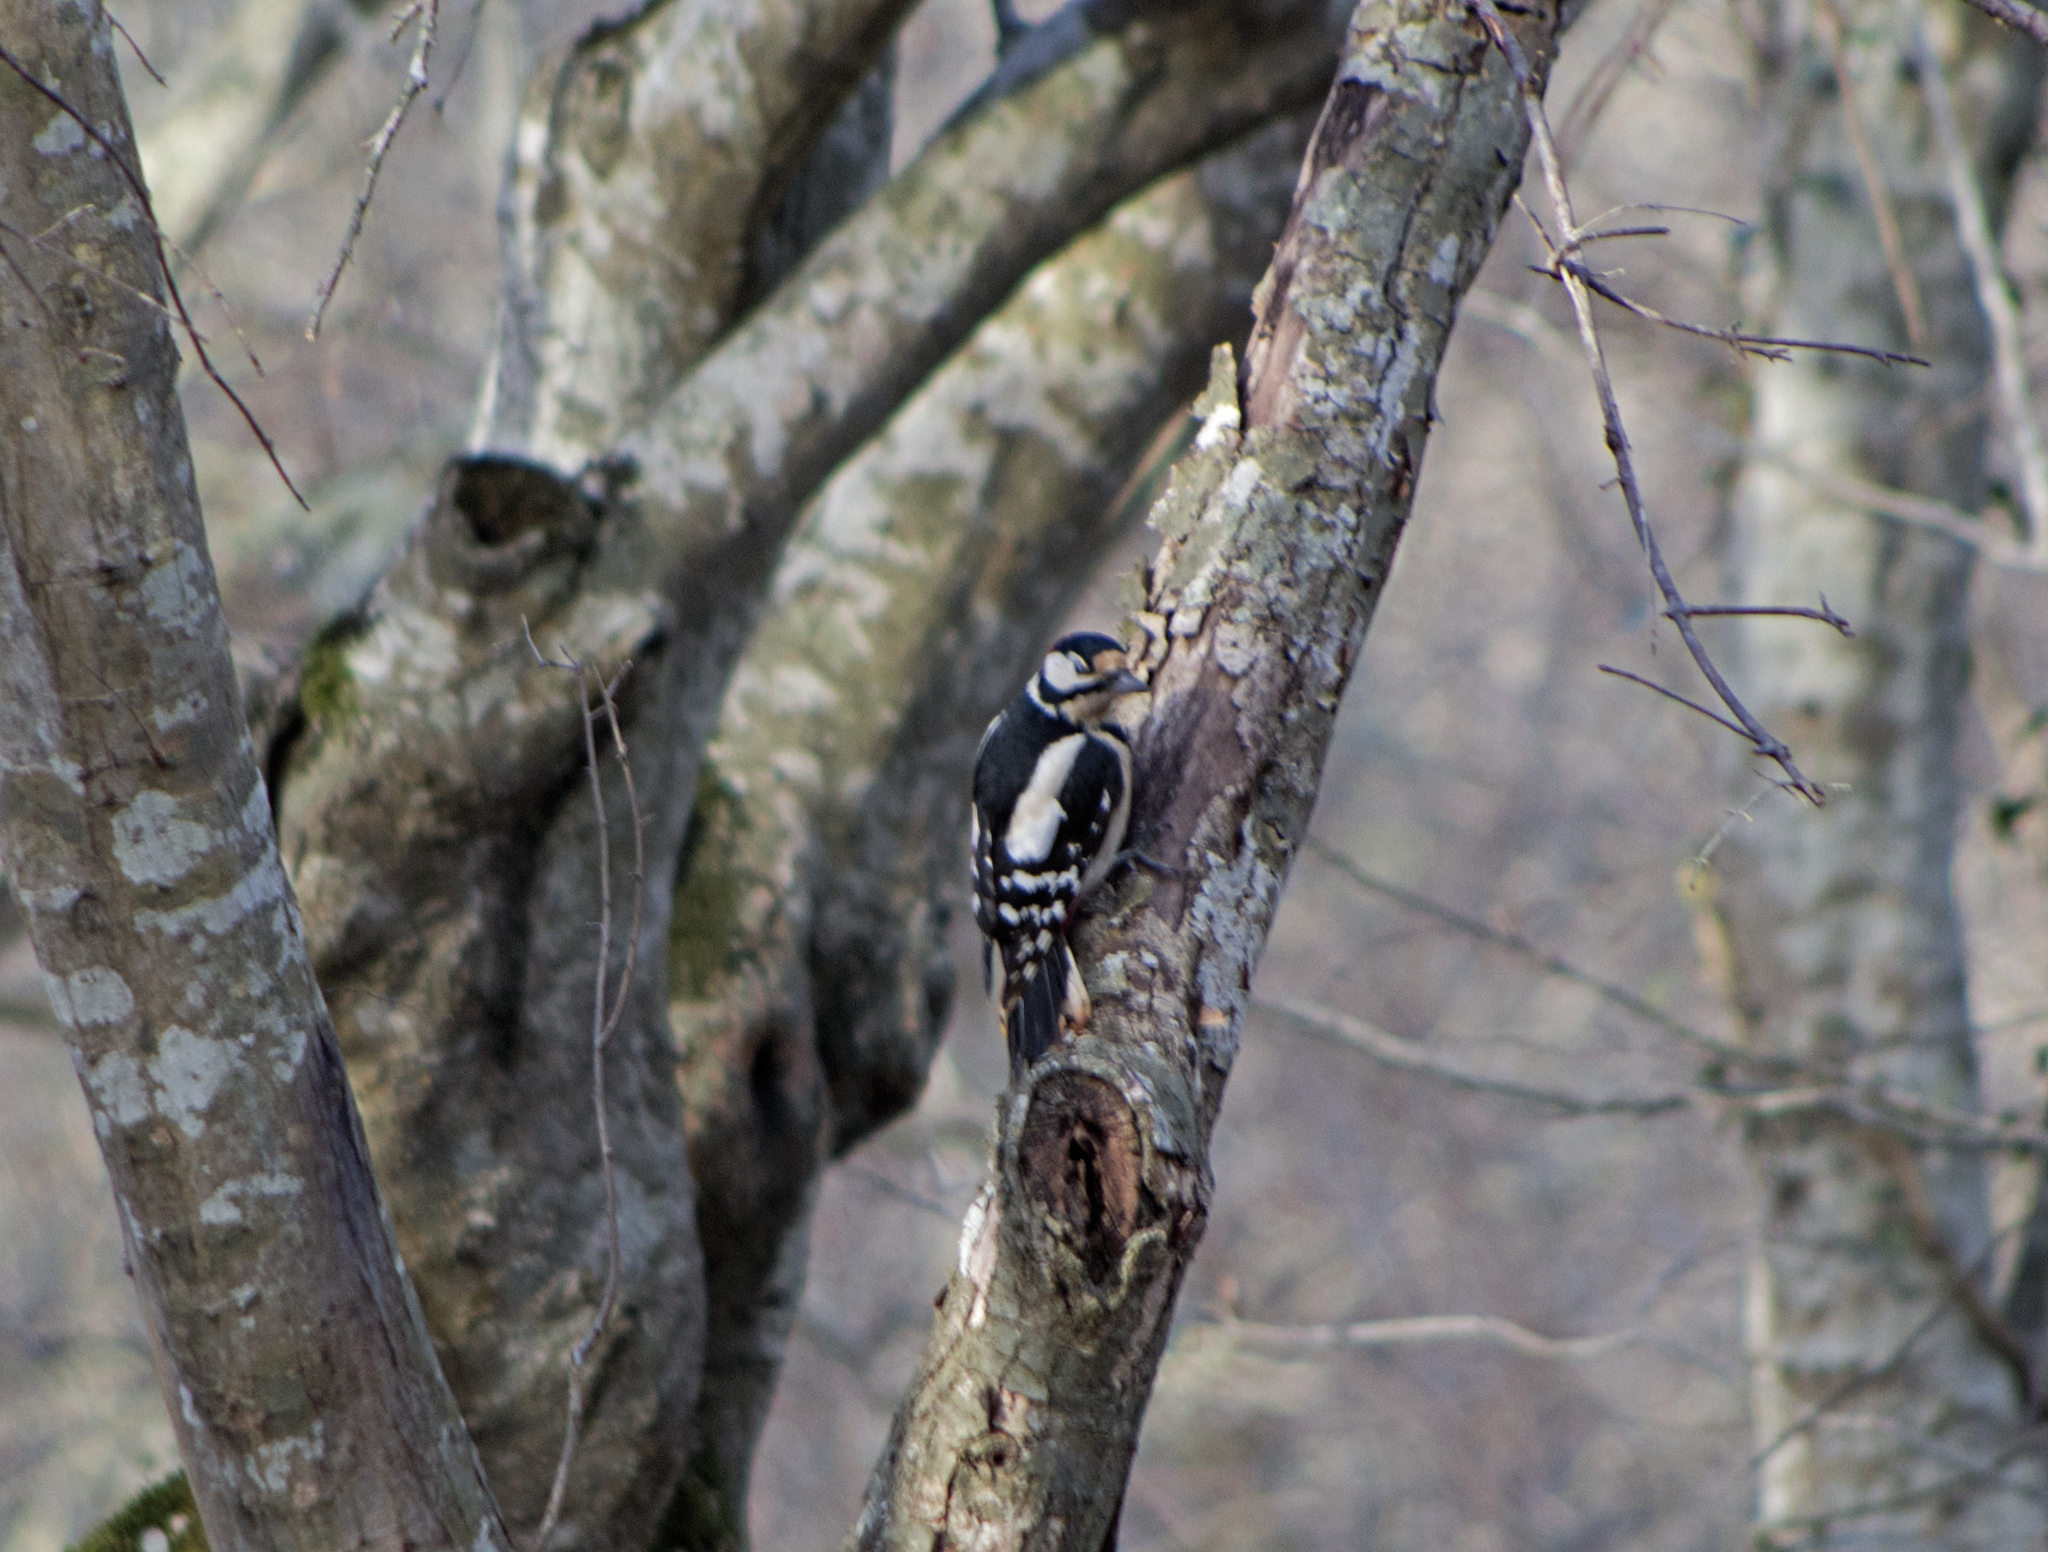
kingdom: Animalia
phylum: Chordata
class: Aves
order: Piciformes
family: Picidae
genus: Dendrocopos
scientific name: Dendrocopos major
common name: Great spotted woodpecker
